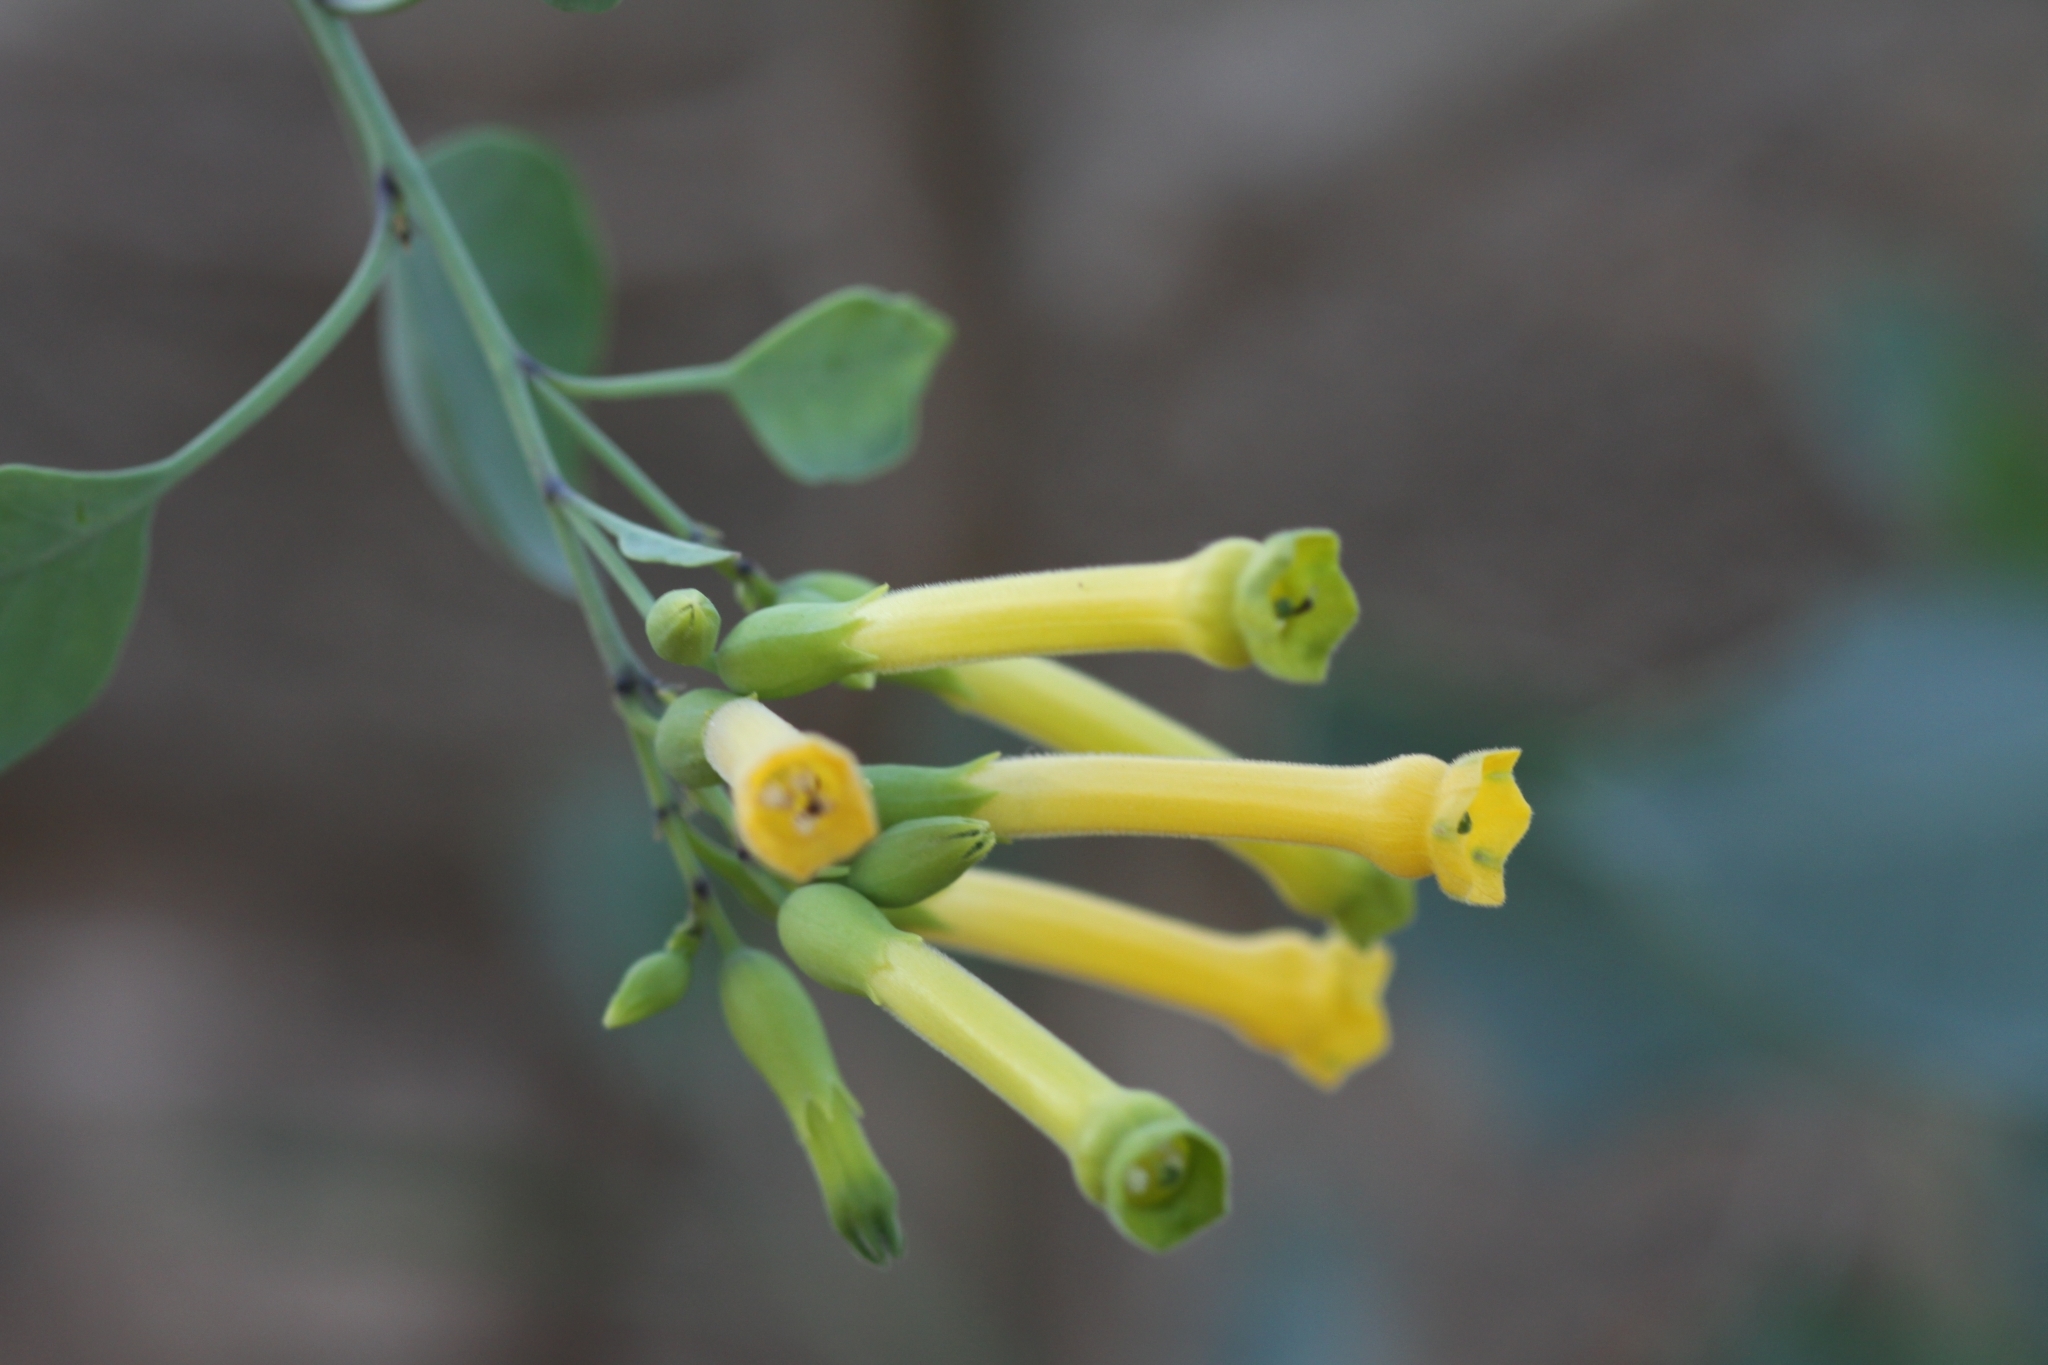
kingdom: Plantae
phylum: Tracheophyta
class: Magnoliopsida
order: Solanales
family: Solanaceae
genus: Nicotiana
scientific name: Nicotiana glauca
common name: Tree tobacco
